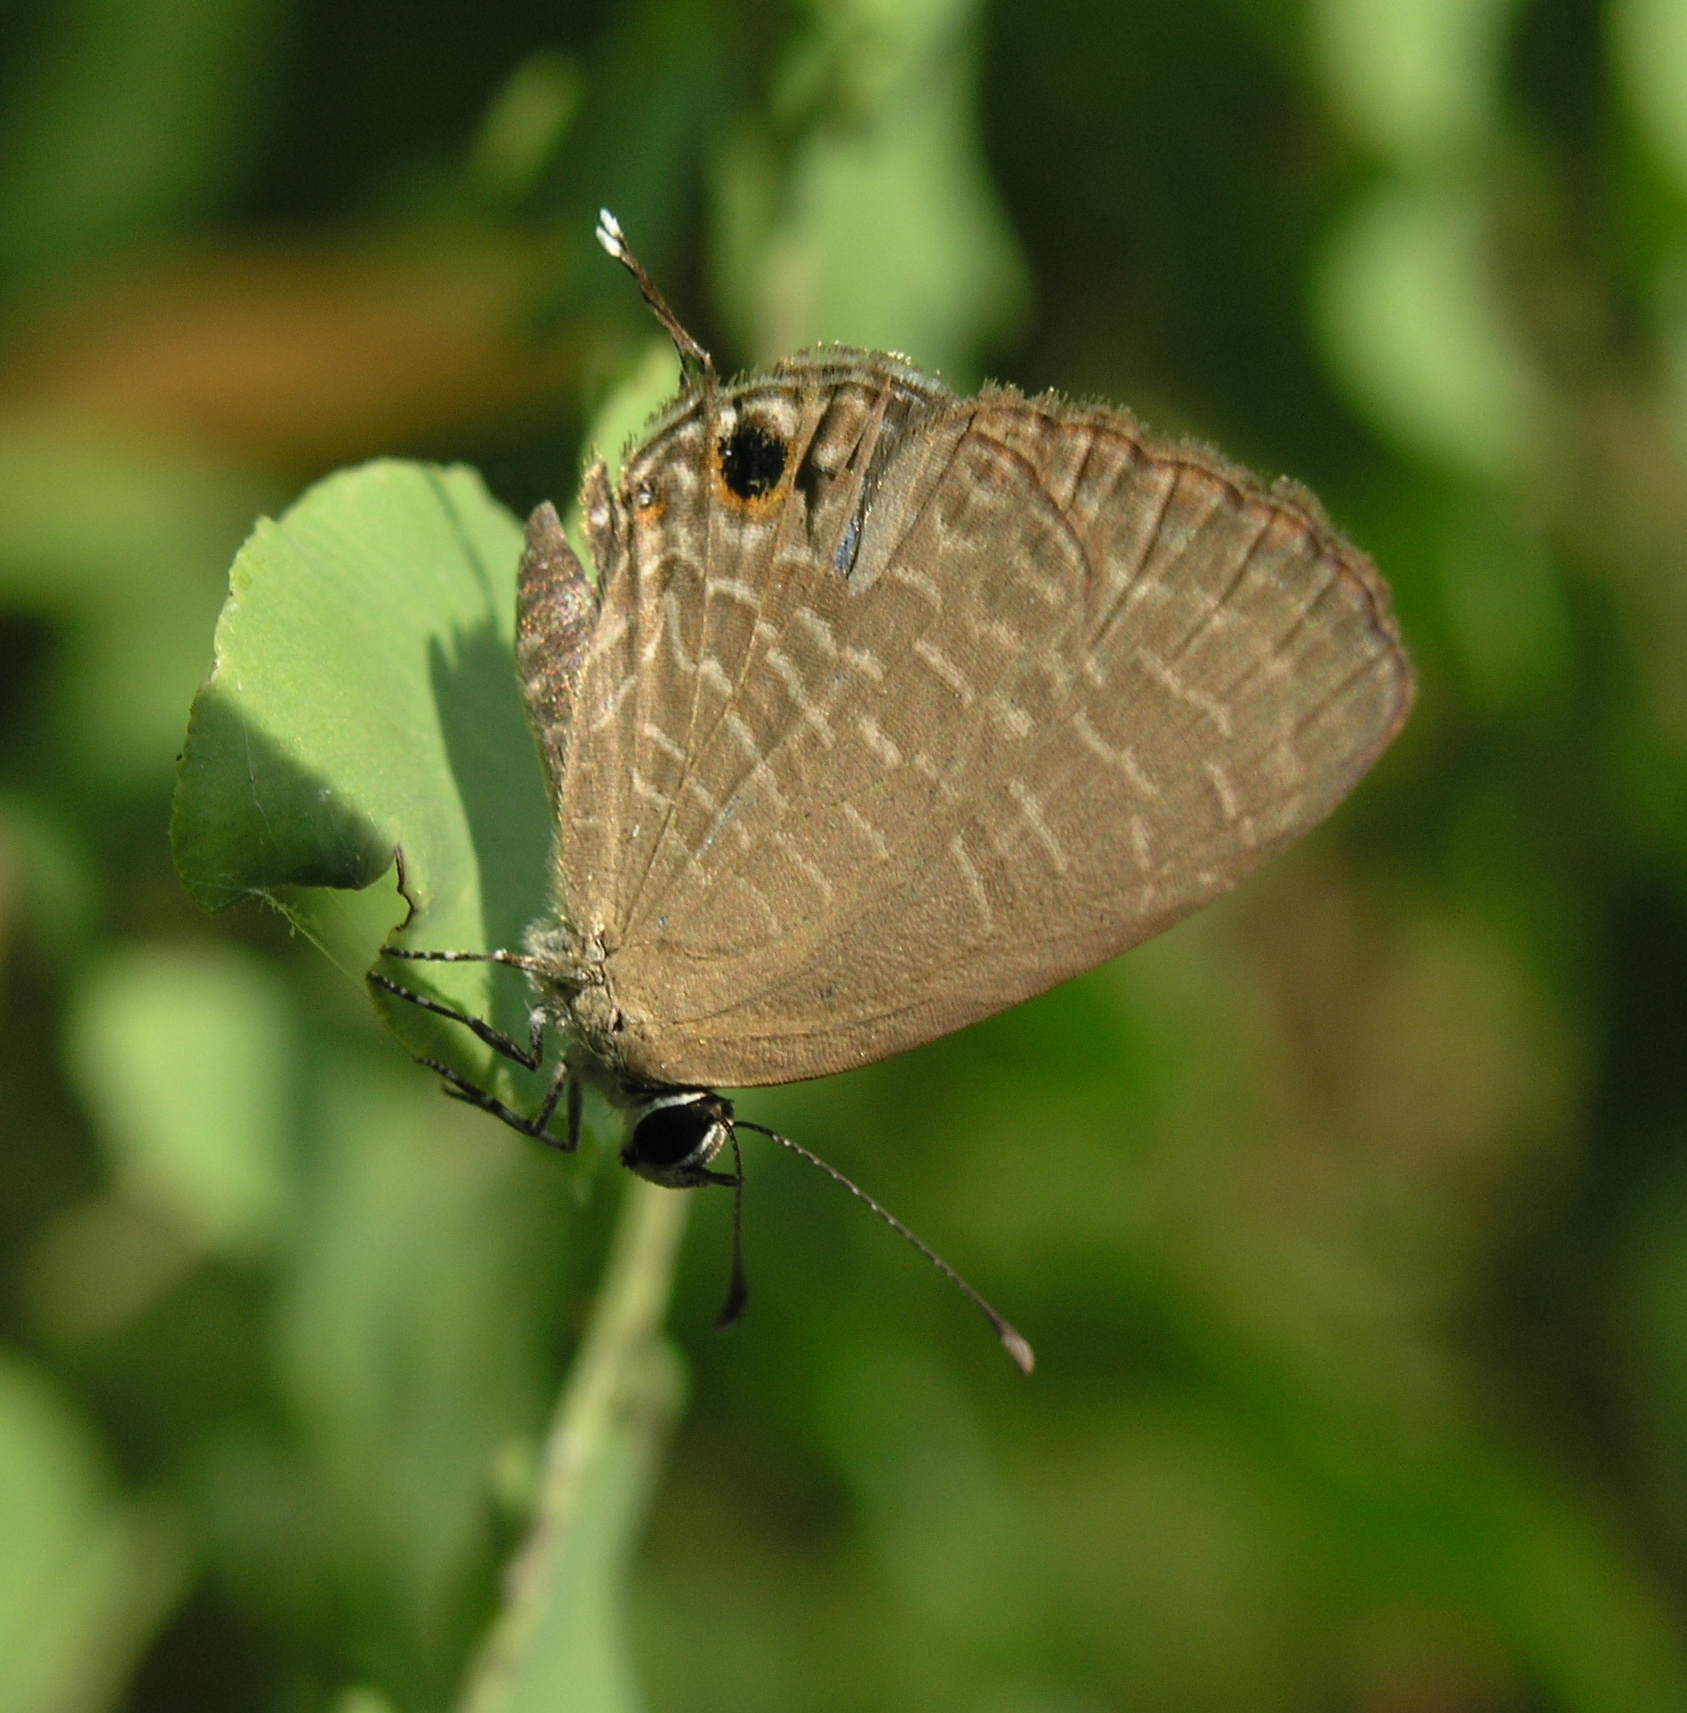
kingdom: Animalia
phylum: Arthropoda
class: Insecta
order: Lepidoptera
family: Lycaenidae
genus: Jamides
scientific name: Jamides bochus
